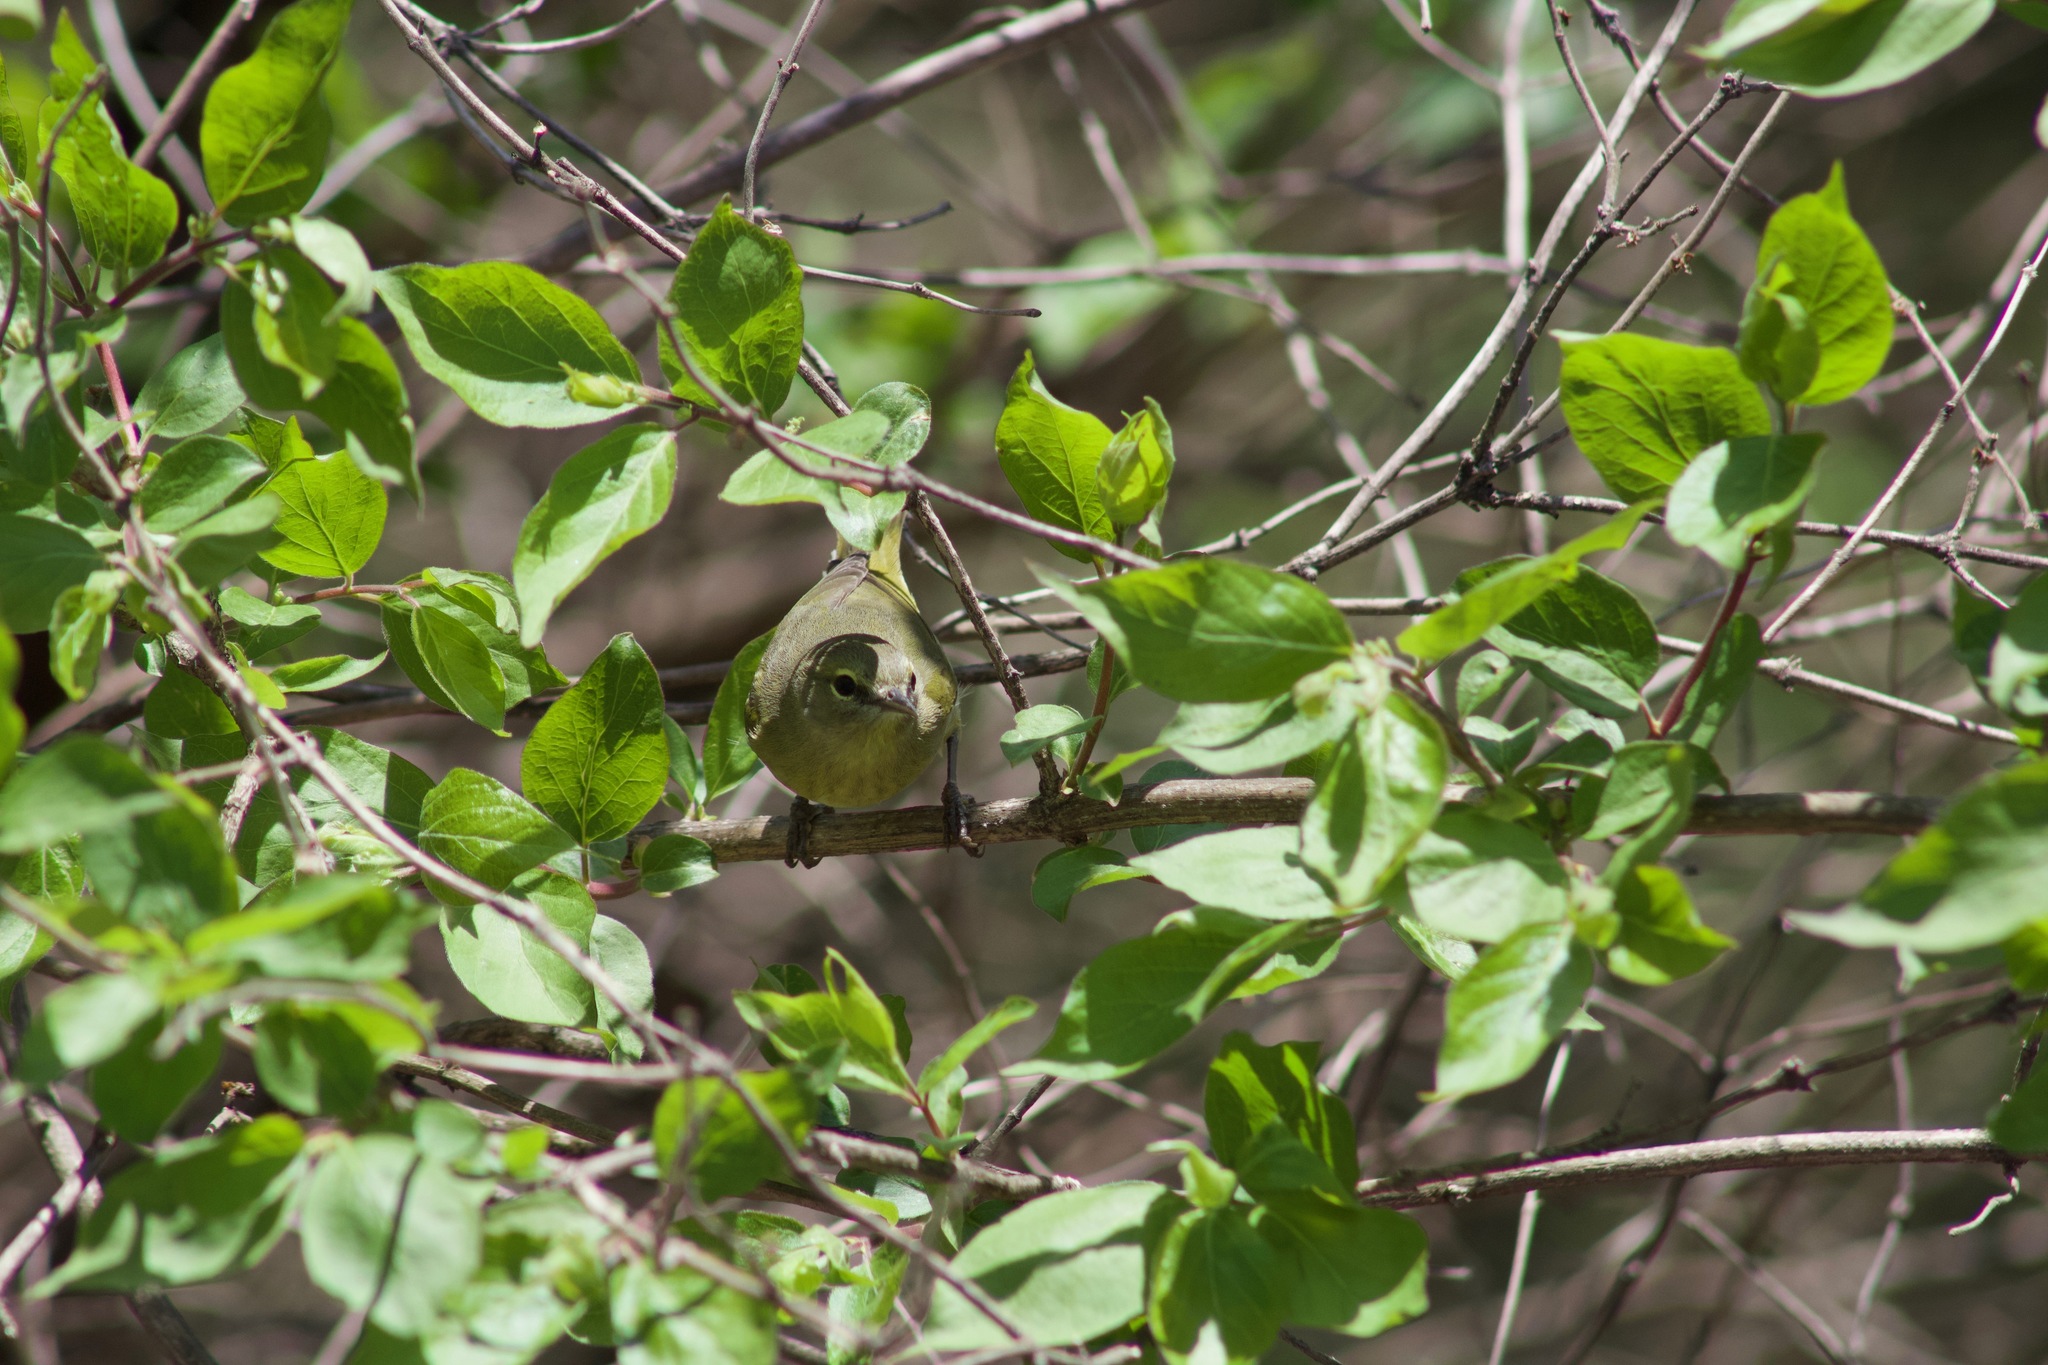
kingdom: Animalia
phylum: Chordata
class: Aves
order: Passeriformes
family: Parulidae
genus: Leiothlypis
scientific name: Leiothlypis celata
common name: Orange-crowned warbler
